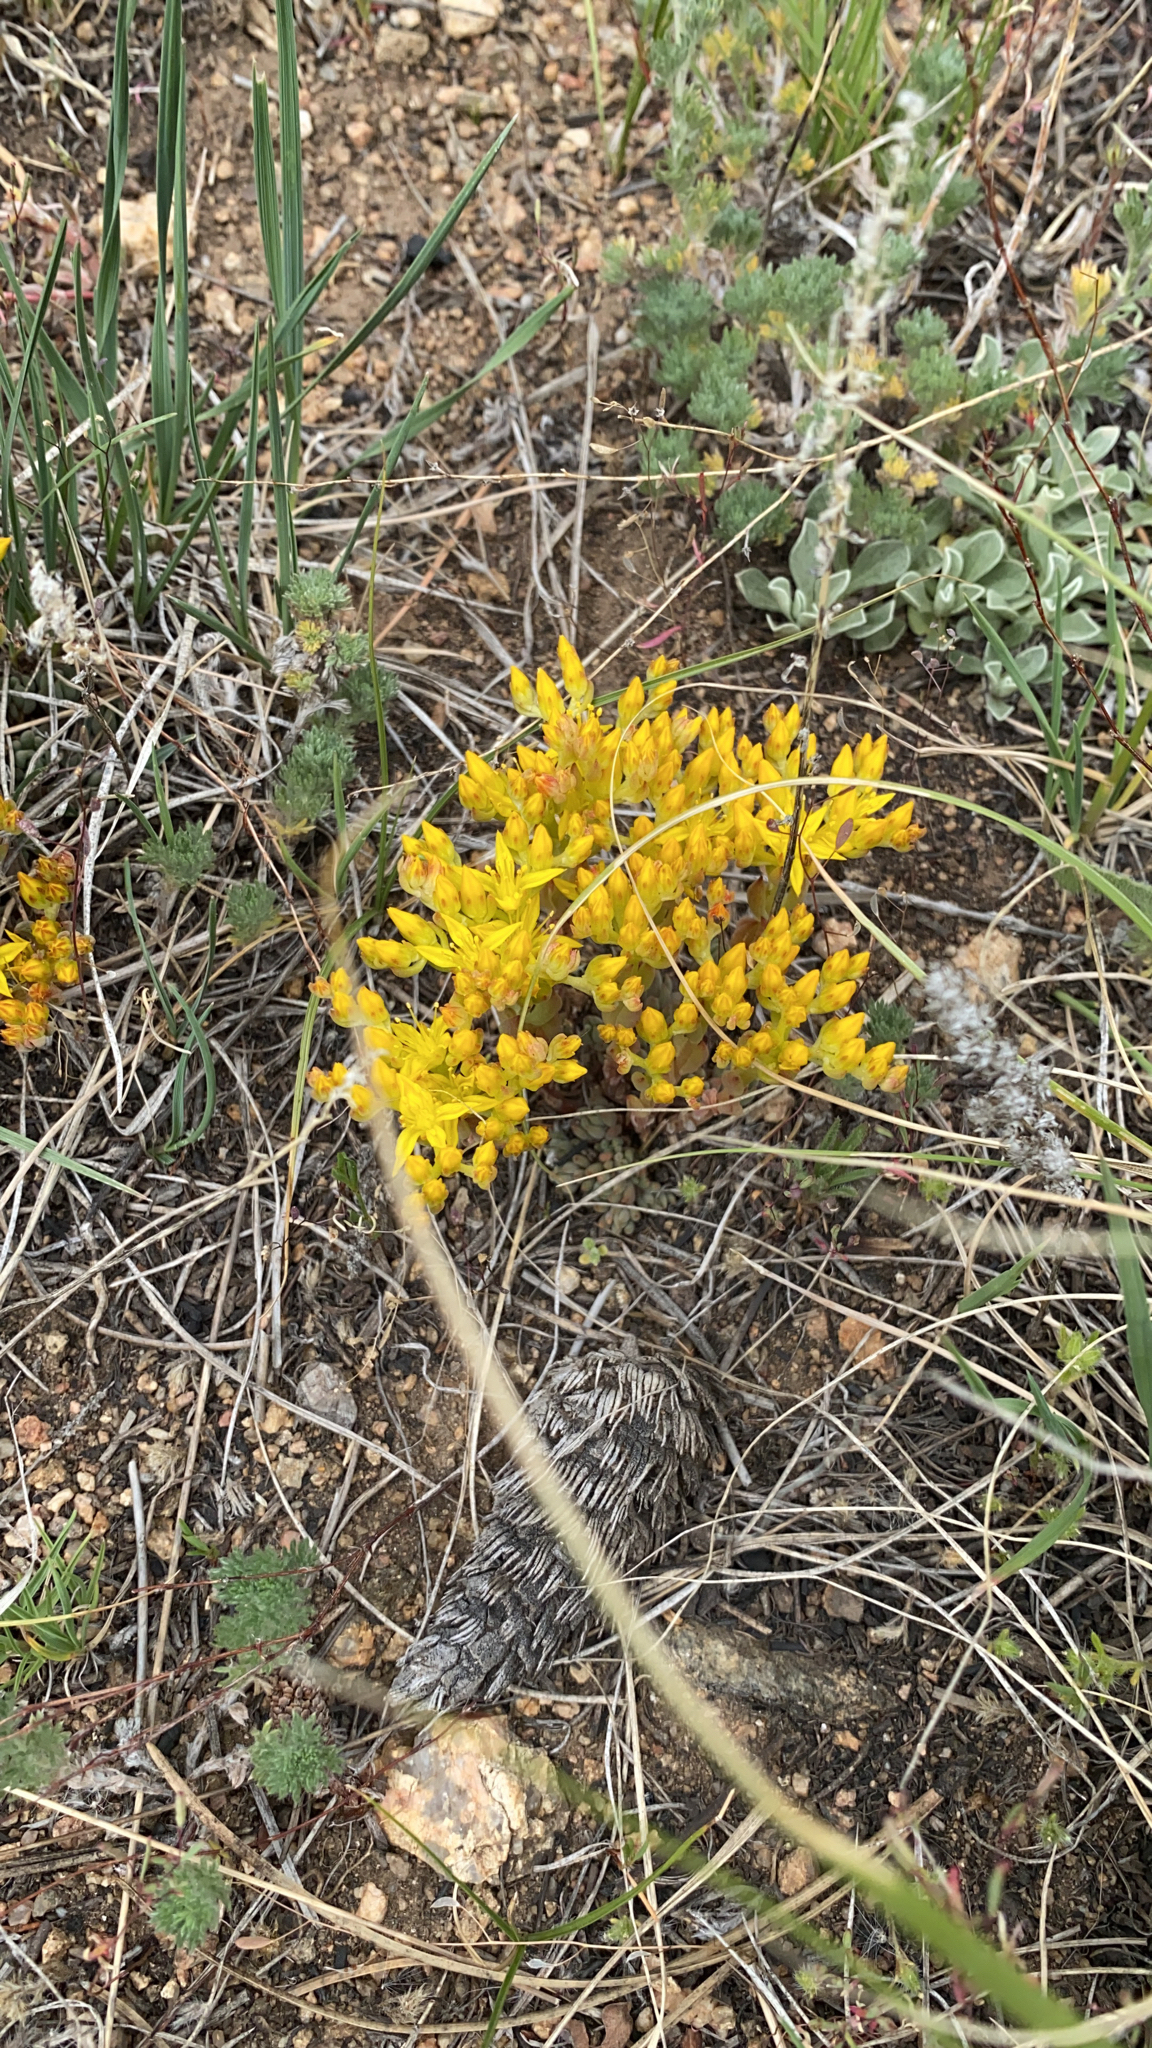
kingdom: Plantae
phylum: Tracheophyta
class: Magnoliopsida
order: Saxifragales
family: Crassulaceae
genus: Sedum
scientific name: Sedum lanceolatum
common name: Common stonecrop
